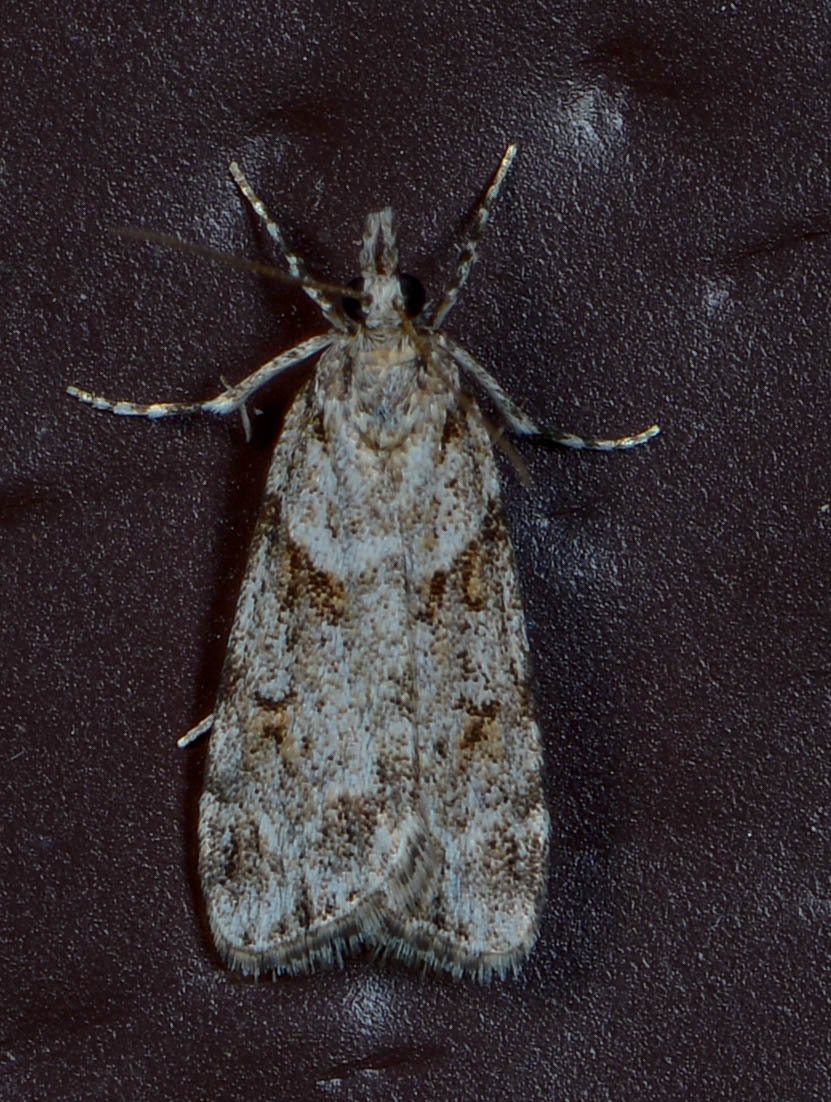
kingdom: Animalia
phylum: Arthropoda
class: Insecta
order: Lepidoptera
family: Crambidae
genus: Scoparia
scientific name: Scoparia biplagialis
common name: Double-striped scoparia moth
